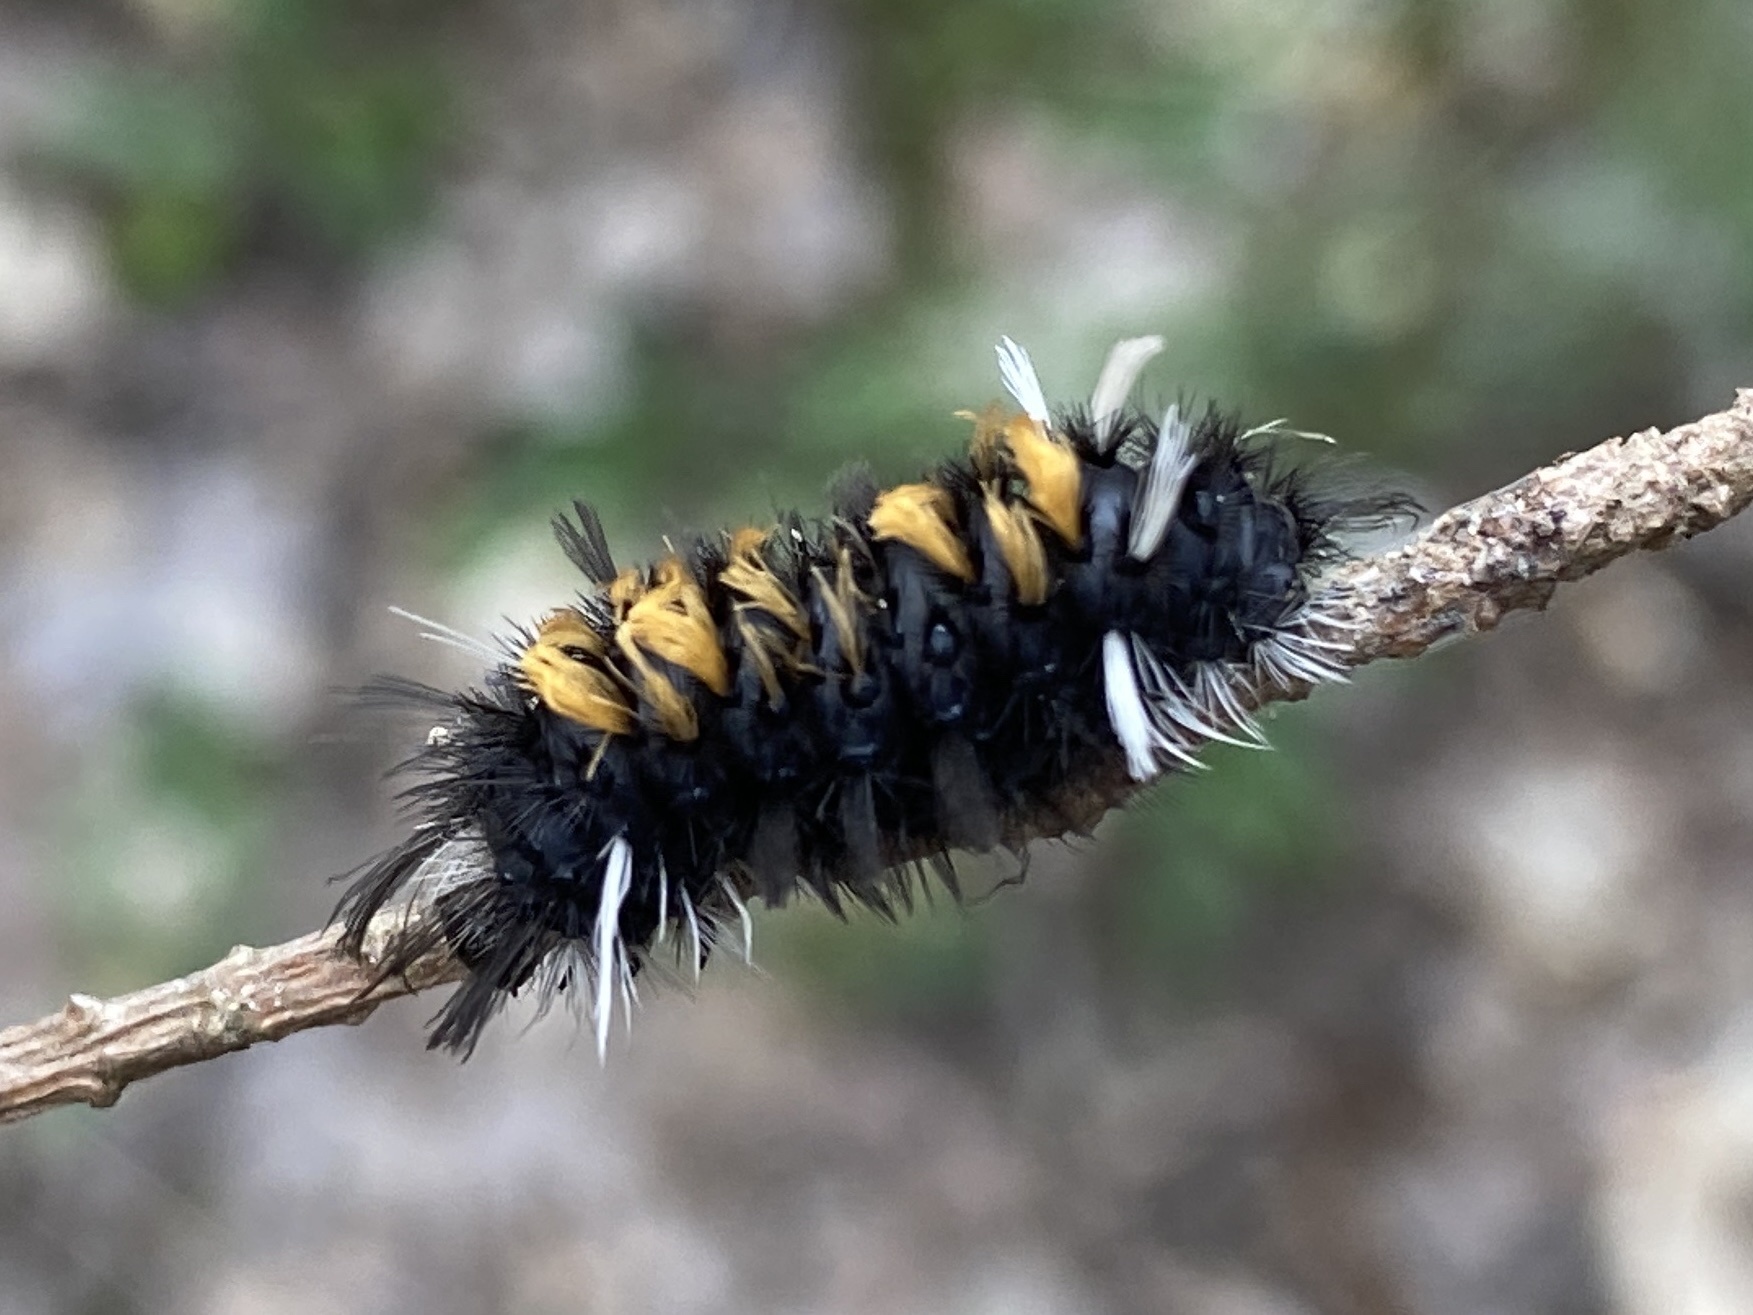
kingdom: Animalia
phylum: Arthropoda
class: Insecta
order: Lepidoptera
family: Erebidae
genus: Euchaetes
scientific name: Euchaetes egle
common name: Milkweed tussock moth
